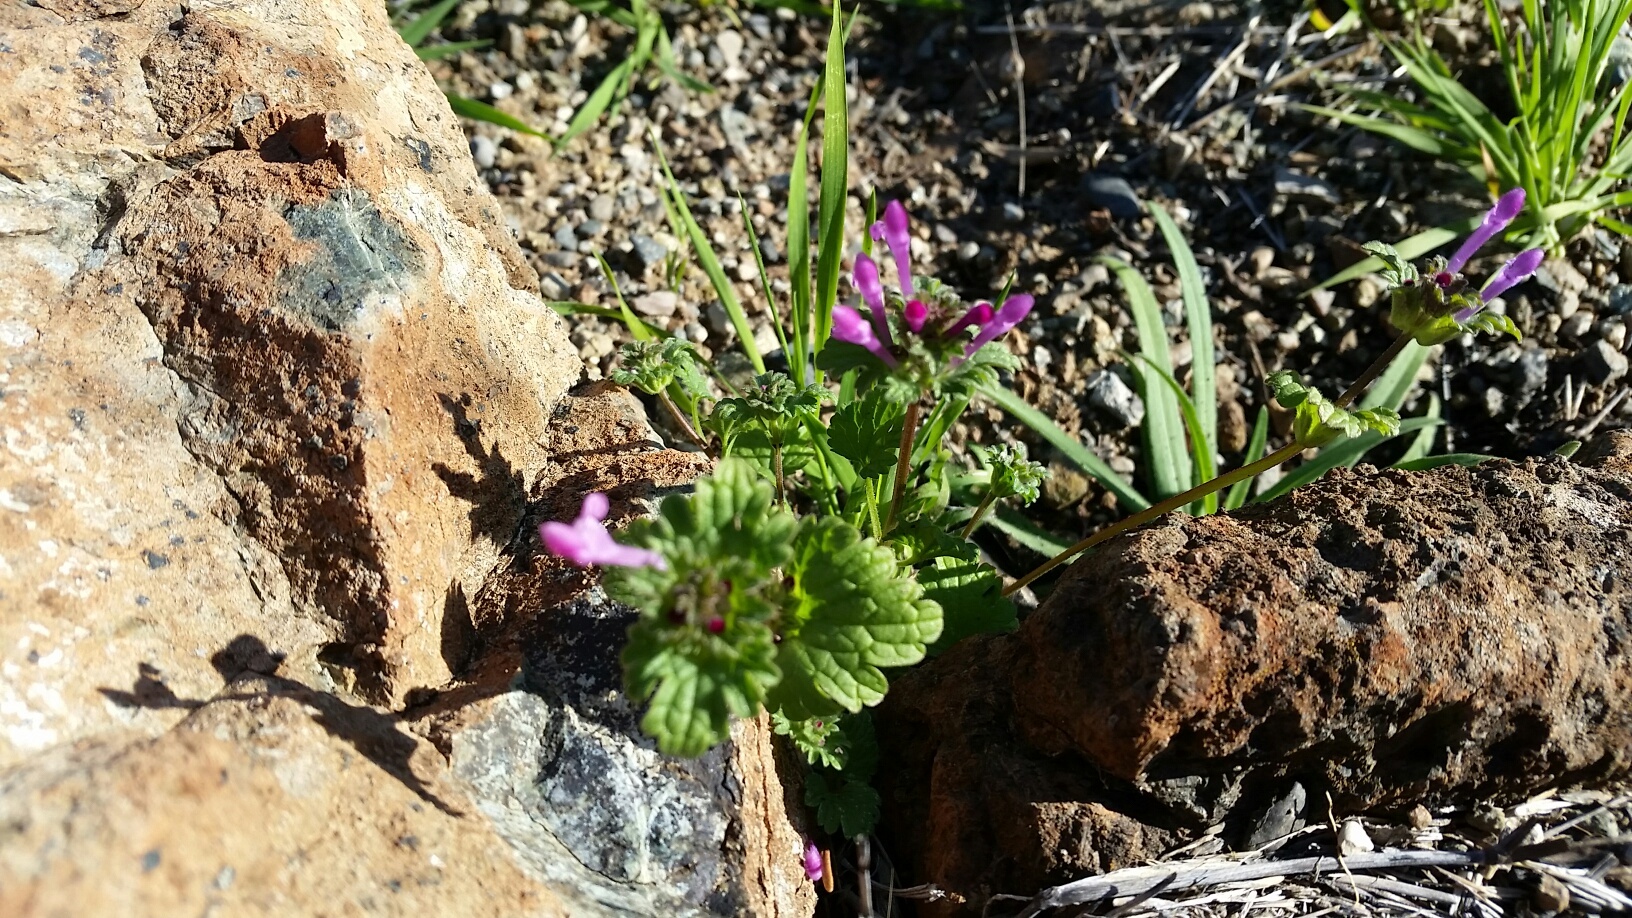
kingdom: Plantae
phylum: Tracheophyta
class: Magnoliopsida
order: Lamiales
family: Lamiaceae
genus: Lamium
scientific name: Lamium amplexicaule
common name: Henbit dead-nettle
